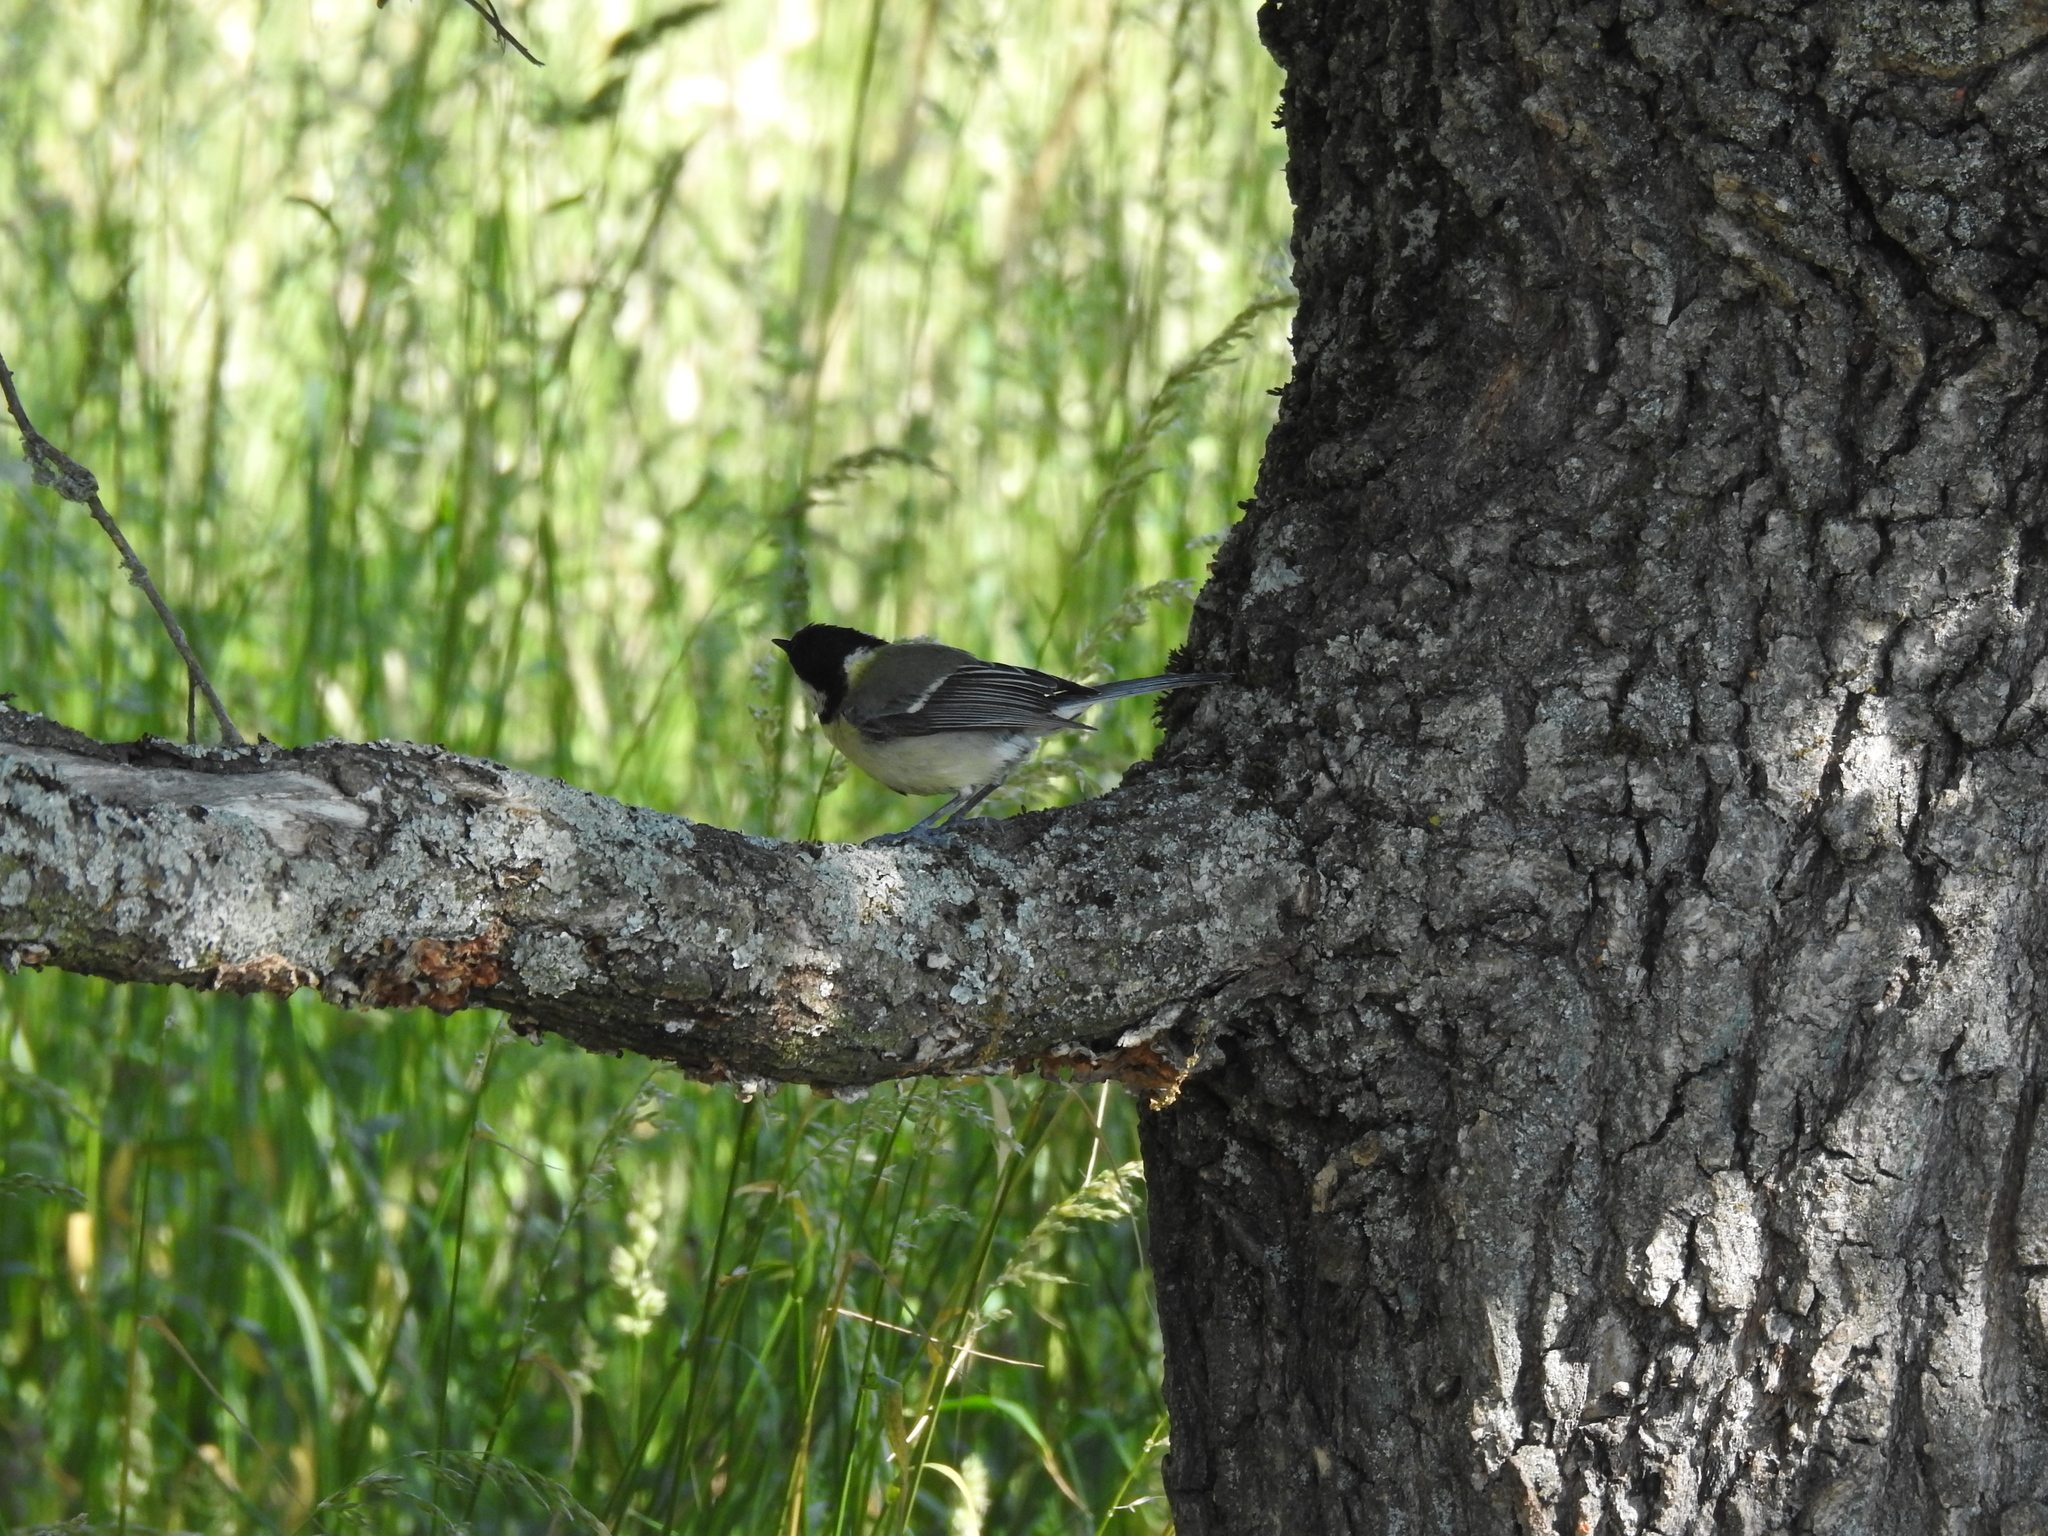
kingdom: Animalia
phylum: Chordata
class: Aves
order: Passeriformes
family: Paridae
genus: Parus
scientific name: Parus major
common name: Great tit
